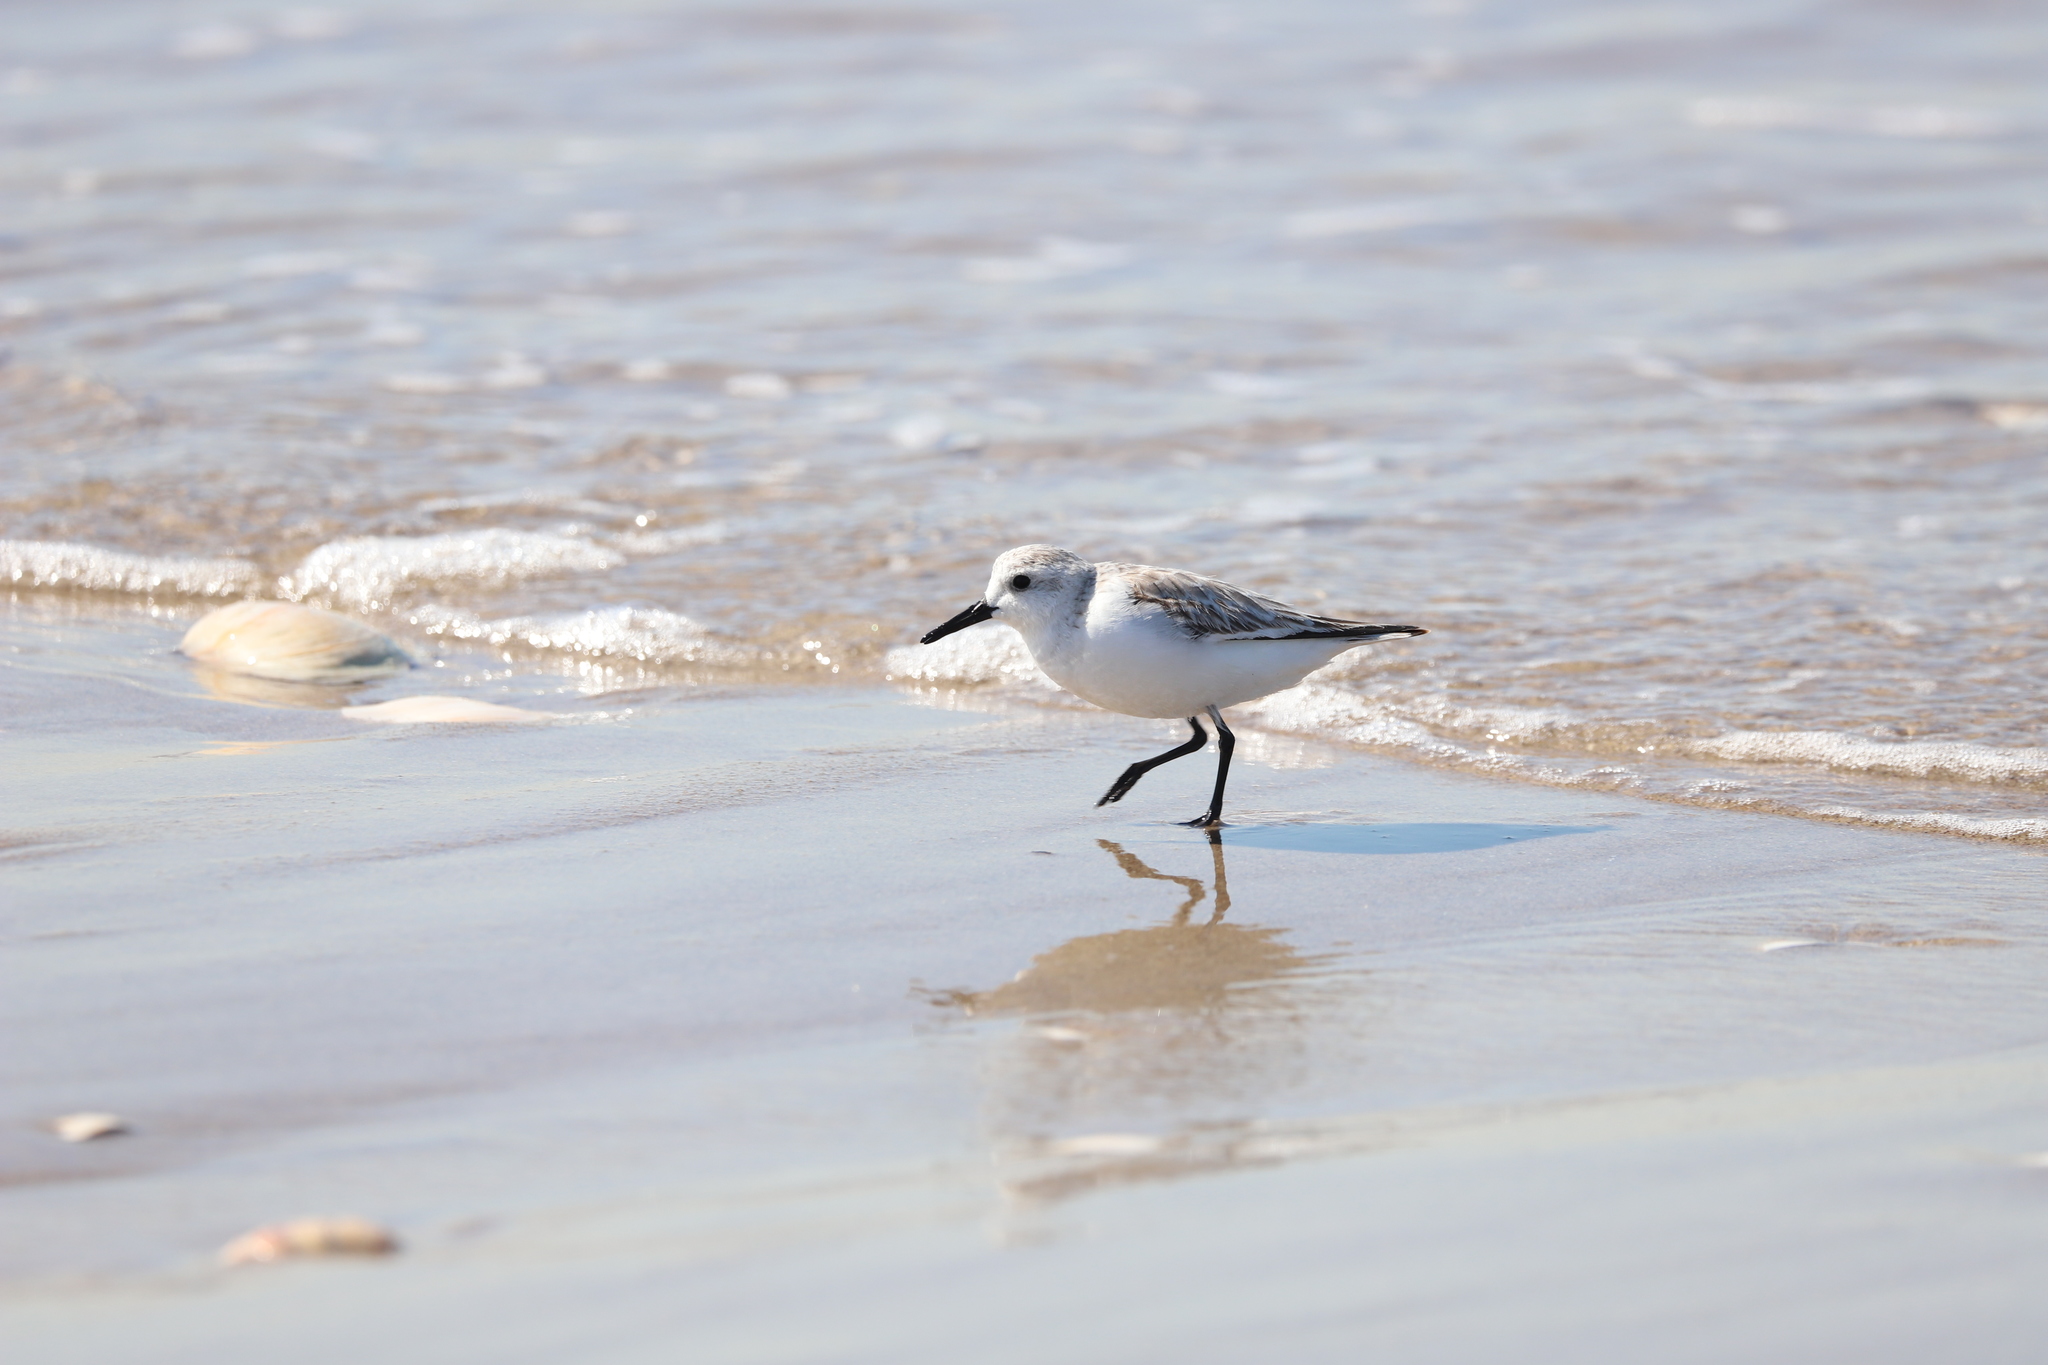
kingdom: Animalia
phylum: Chordata
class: Aves
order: Charadriiformes
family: Scolopacidae
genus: Calidris
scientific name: Calidris alba
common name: Sanderling
